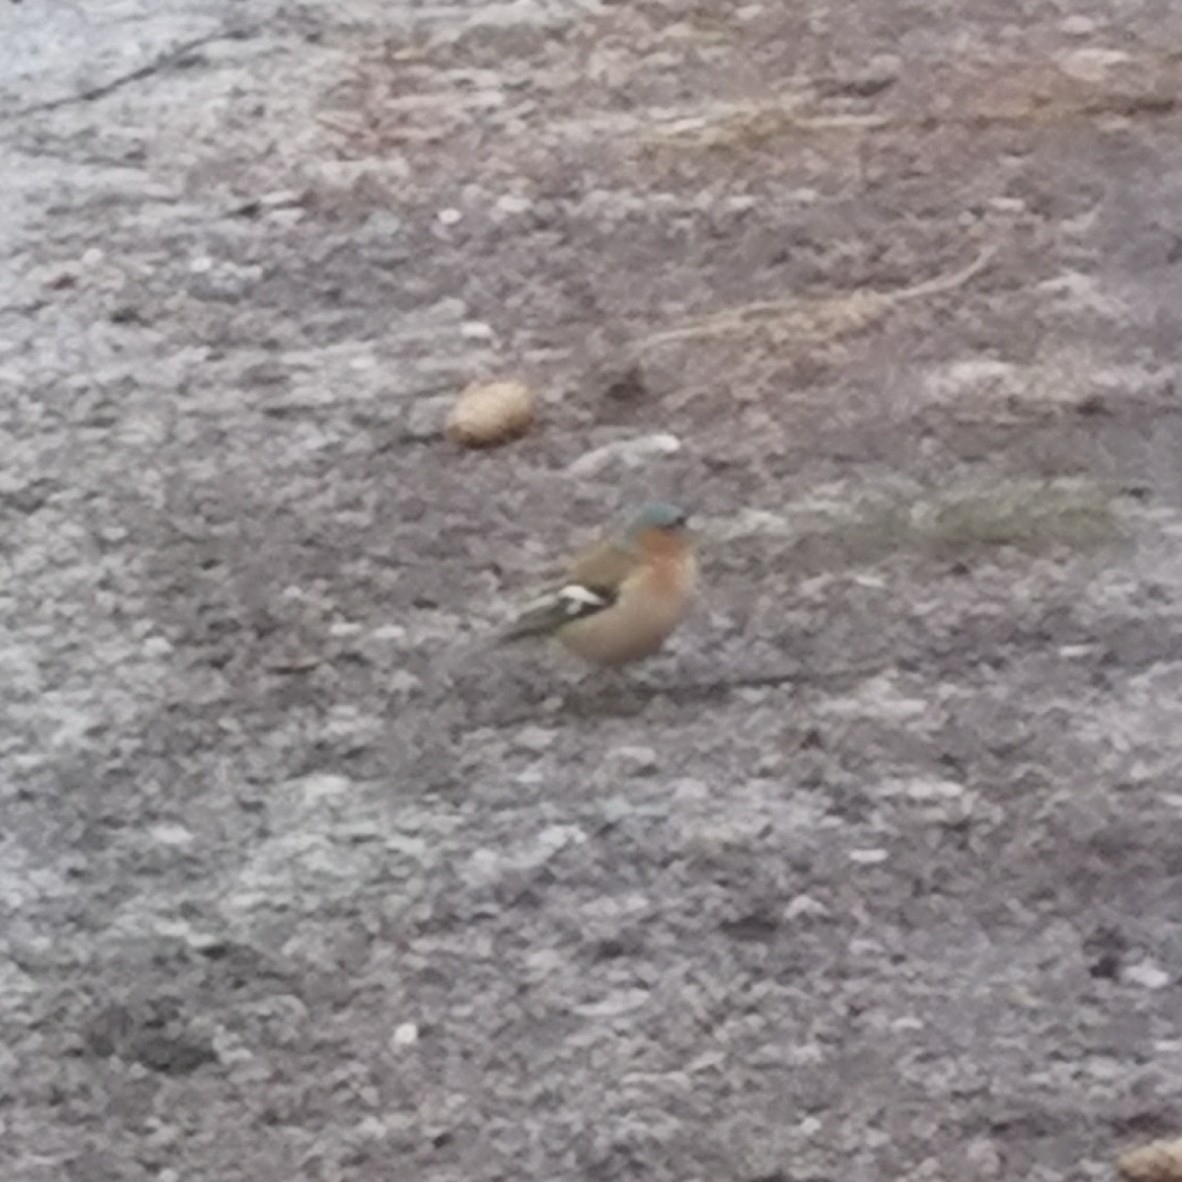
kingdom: Animalia
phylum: Chordata
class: Aves
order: Passeriformes
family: Fringillidae
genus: Fringilla
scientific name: Fringilla coelebs
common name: Common chaffinch
